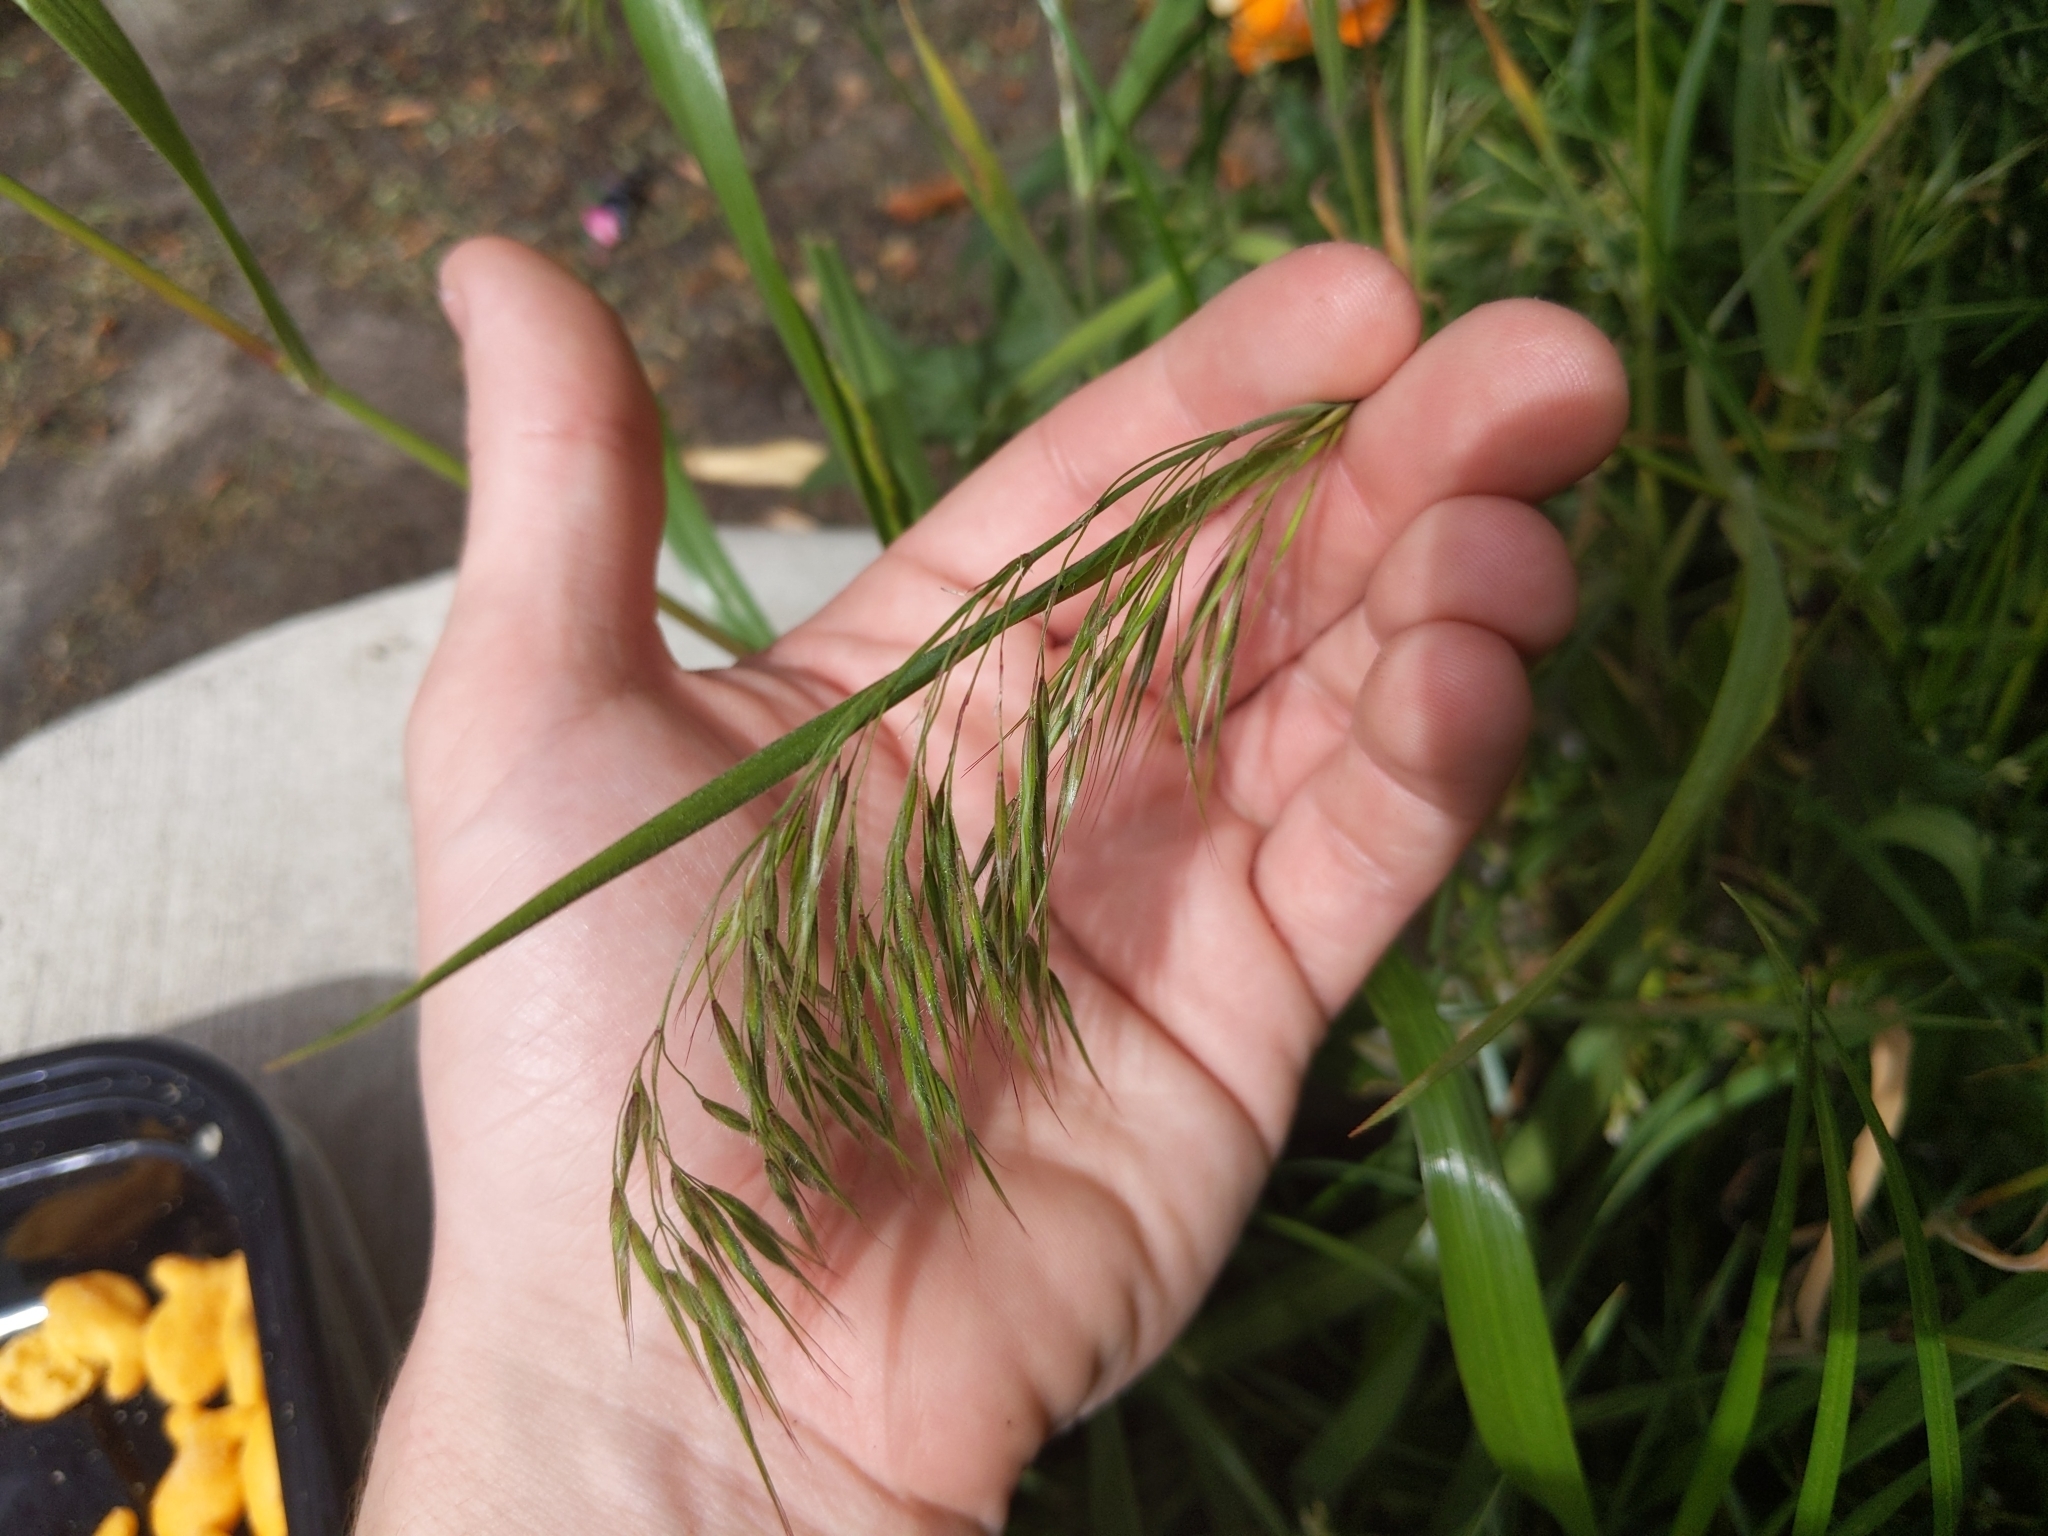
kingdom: Plantae
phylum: Tracheophyta
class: Liliopsida
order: Poales
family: Poaceae
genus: Bromus
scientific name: Bromus tectorum
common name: Cheatgrass
